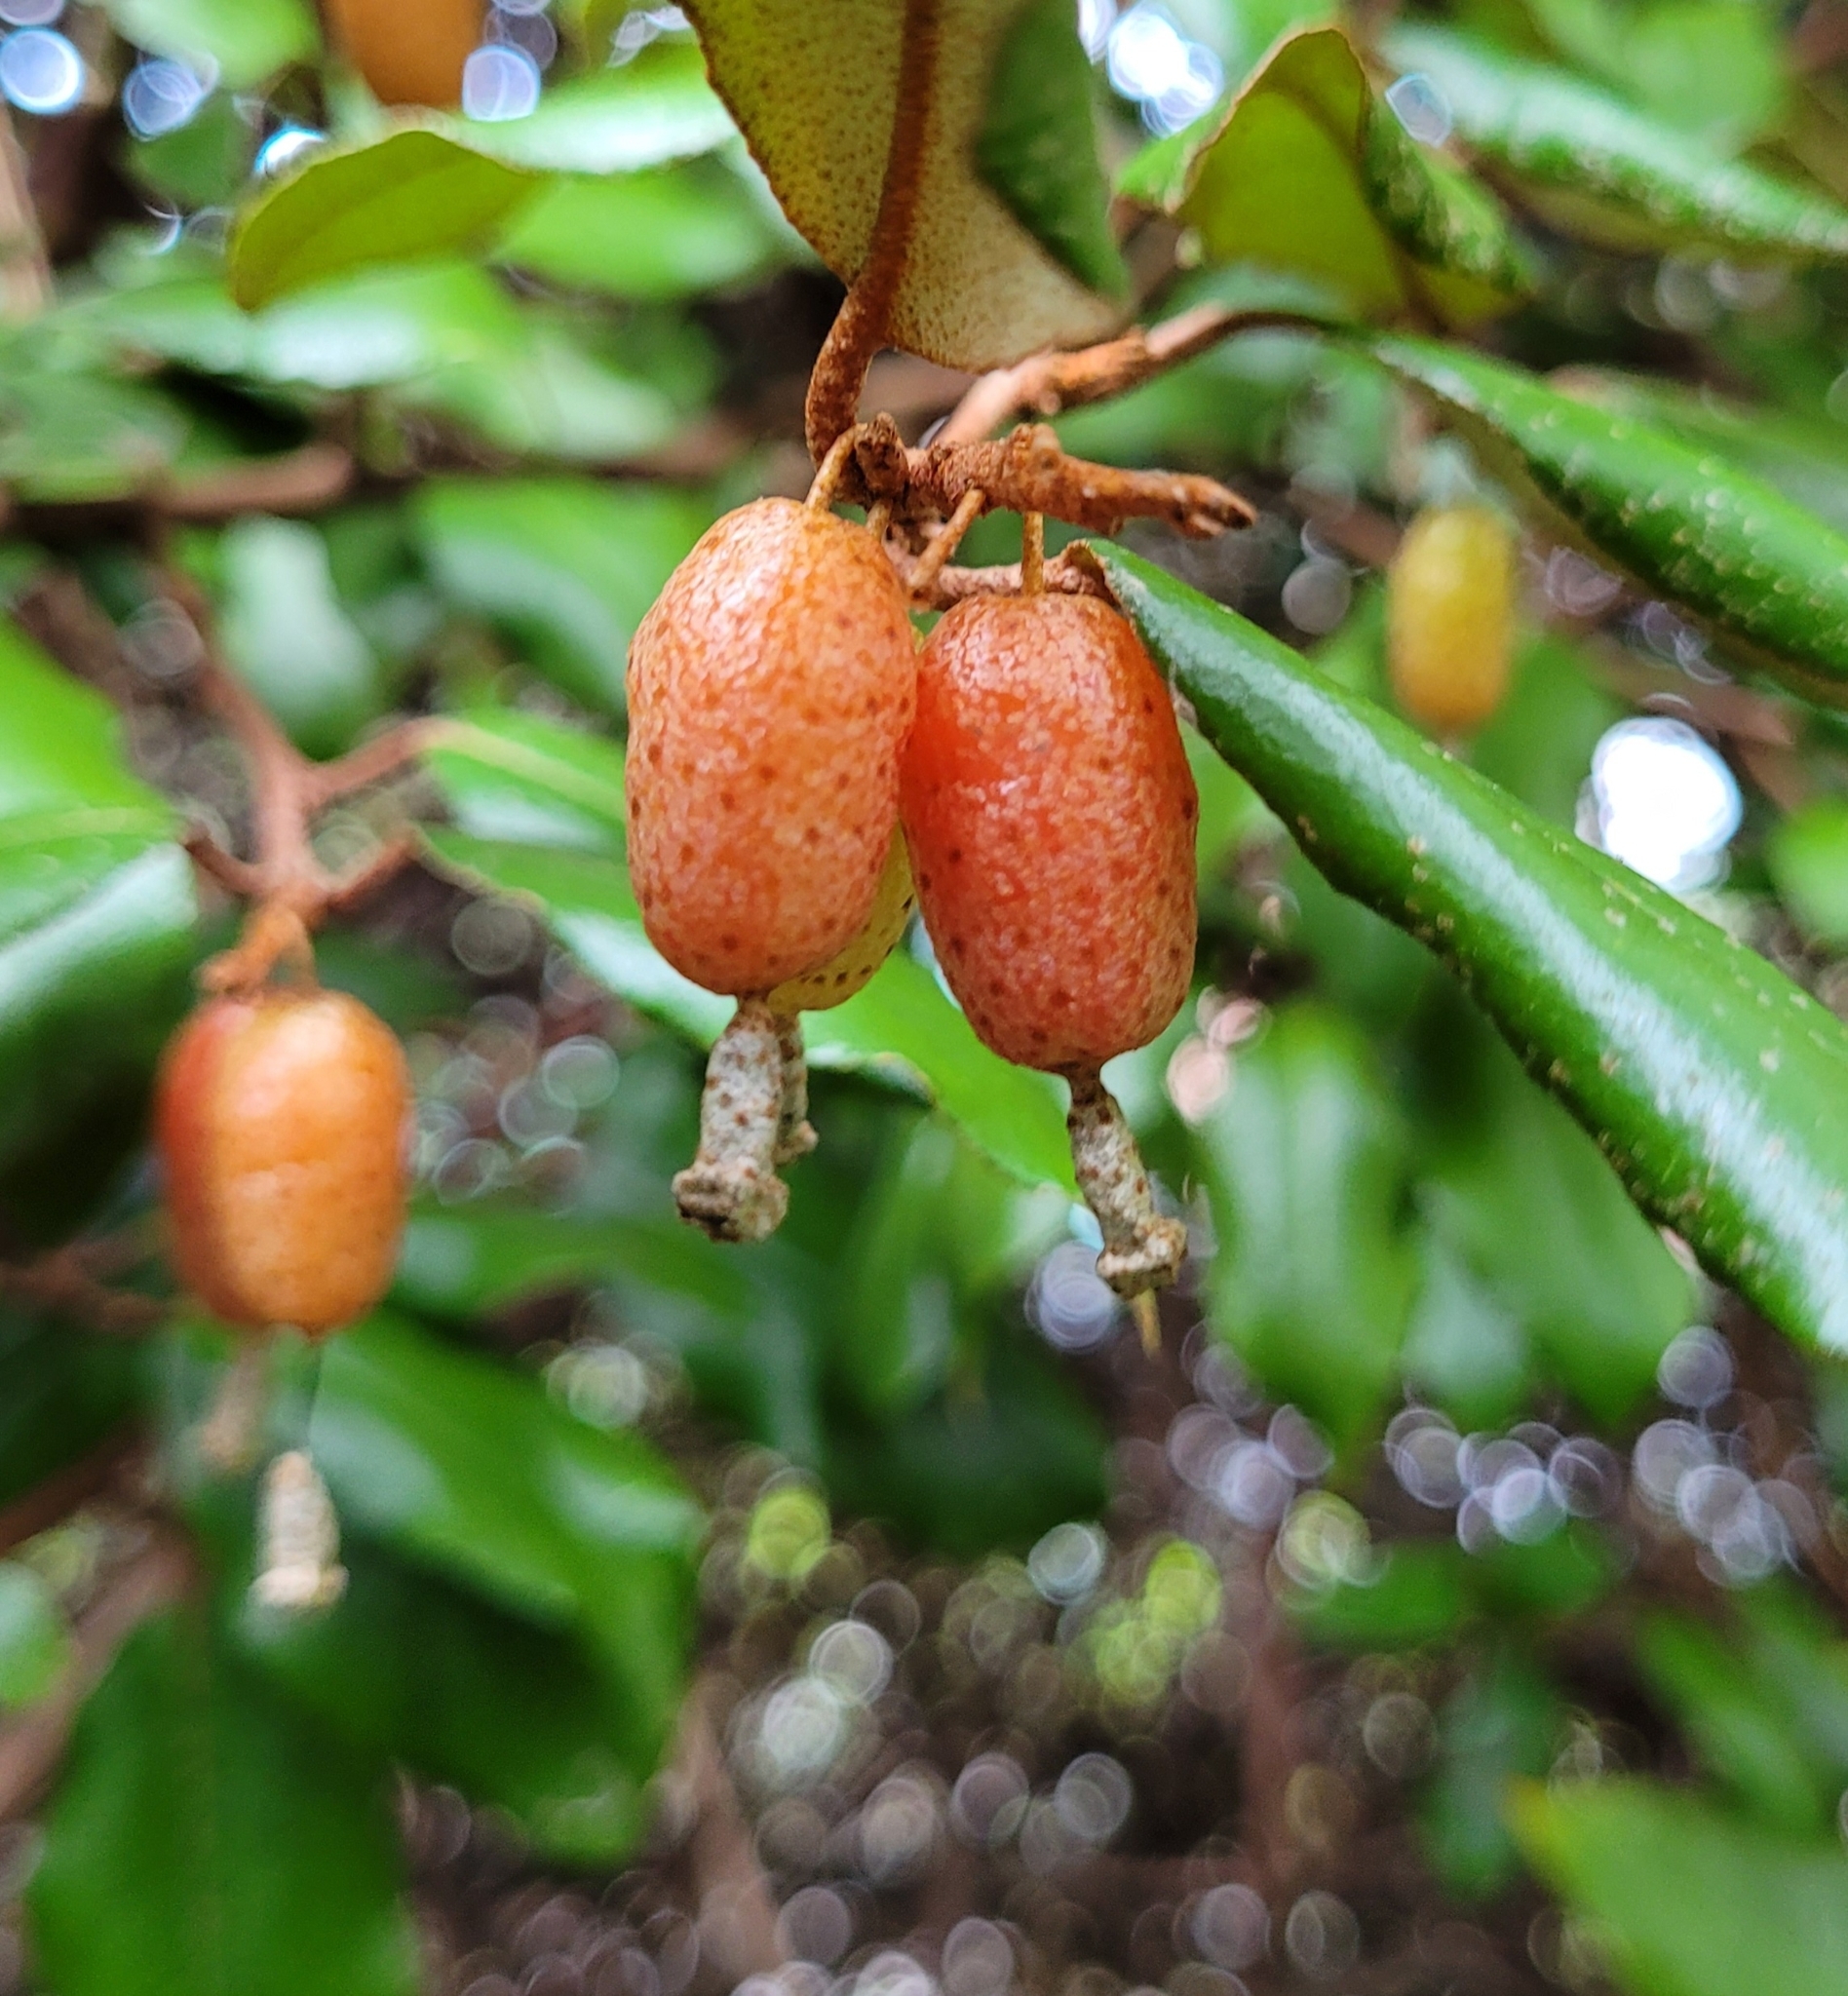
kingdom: Plantae
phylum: Tracheophyta
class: Magnoliopsida
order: Rosales
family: Elaeagnaceae
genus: Elaeagnus
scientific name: Elaeagnus reflexa
